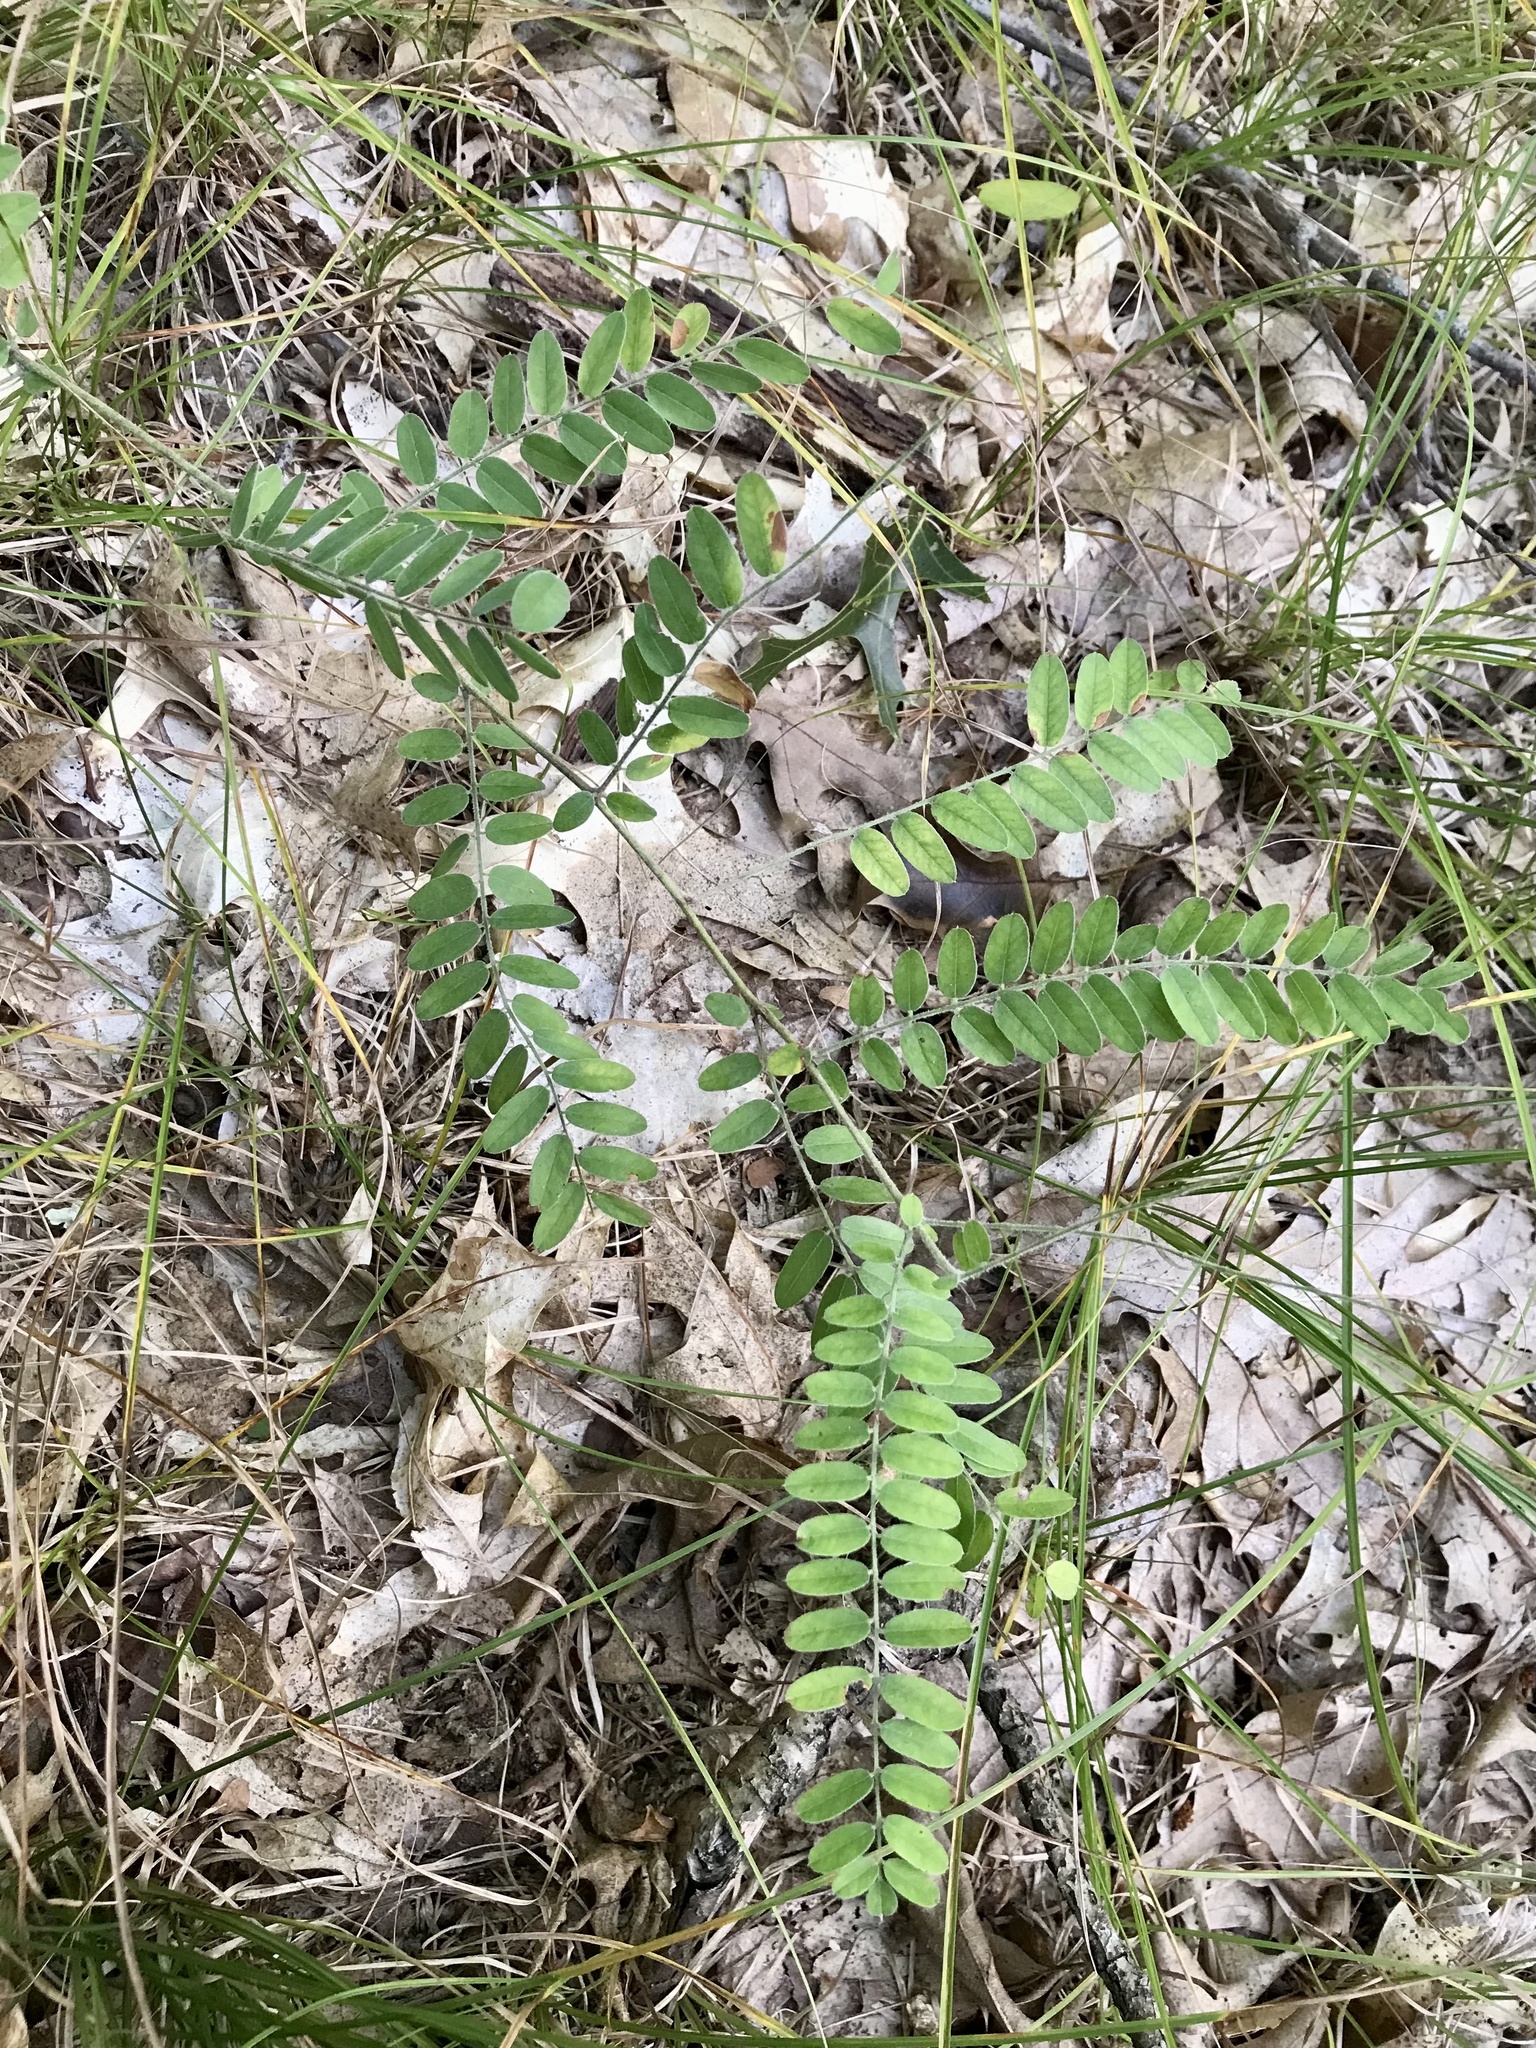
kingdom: Plantae
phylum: Tracheophyta
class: Magnoliopsida
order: Fabales
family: Fabaceae
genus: Amorpha
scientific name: Amorpha canescens
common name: Leadplant
